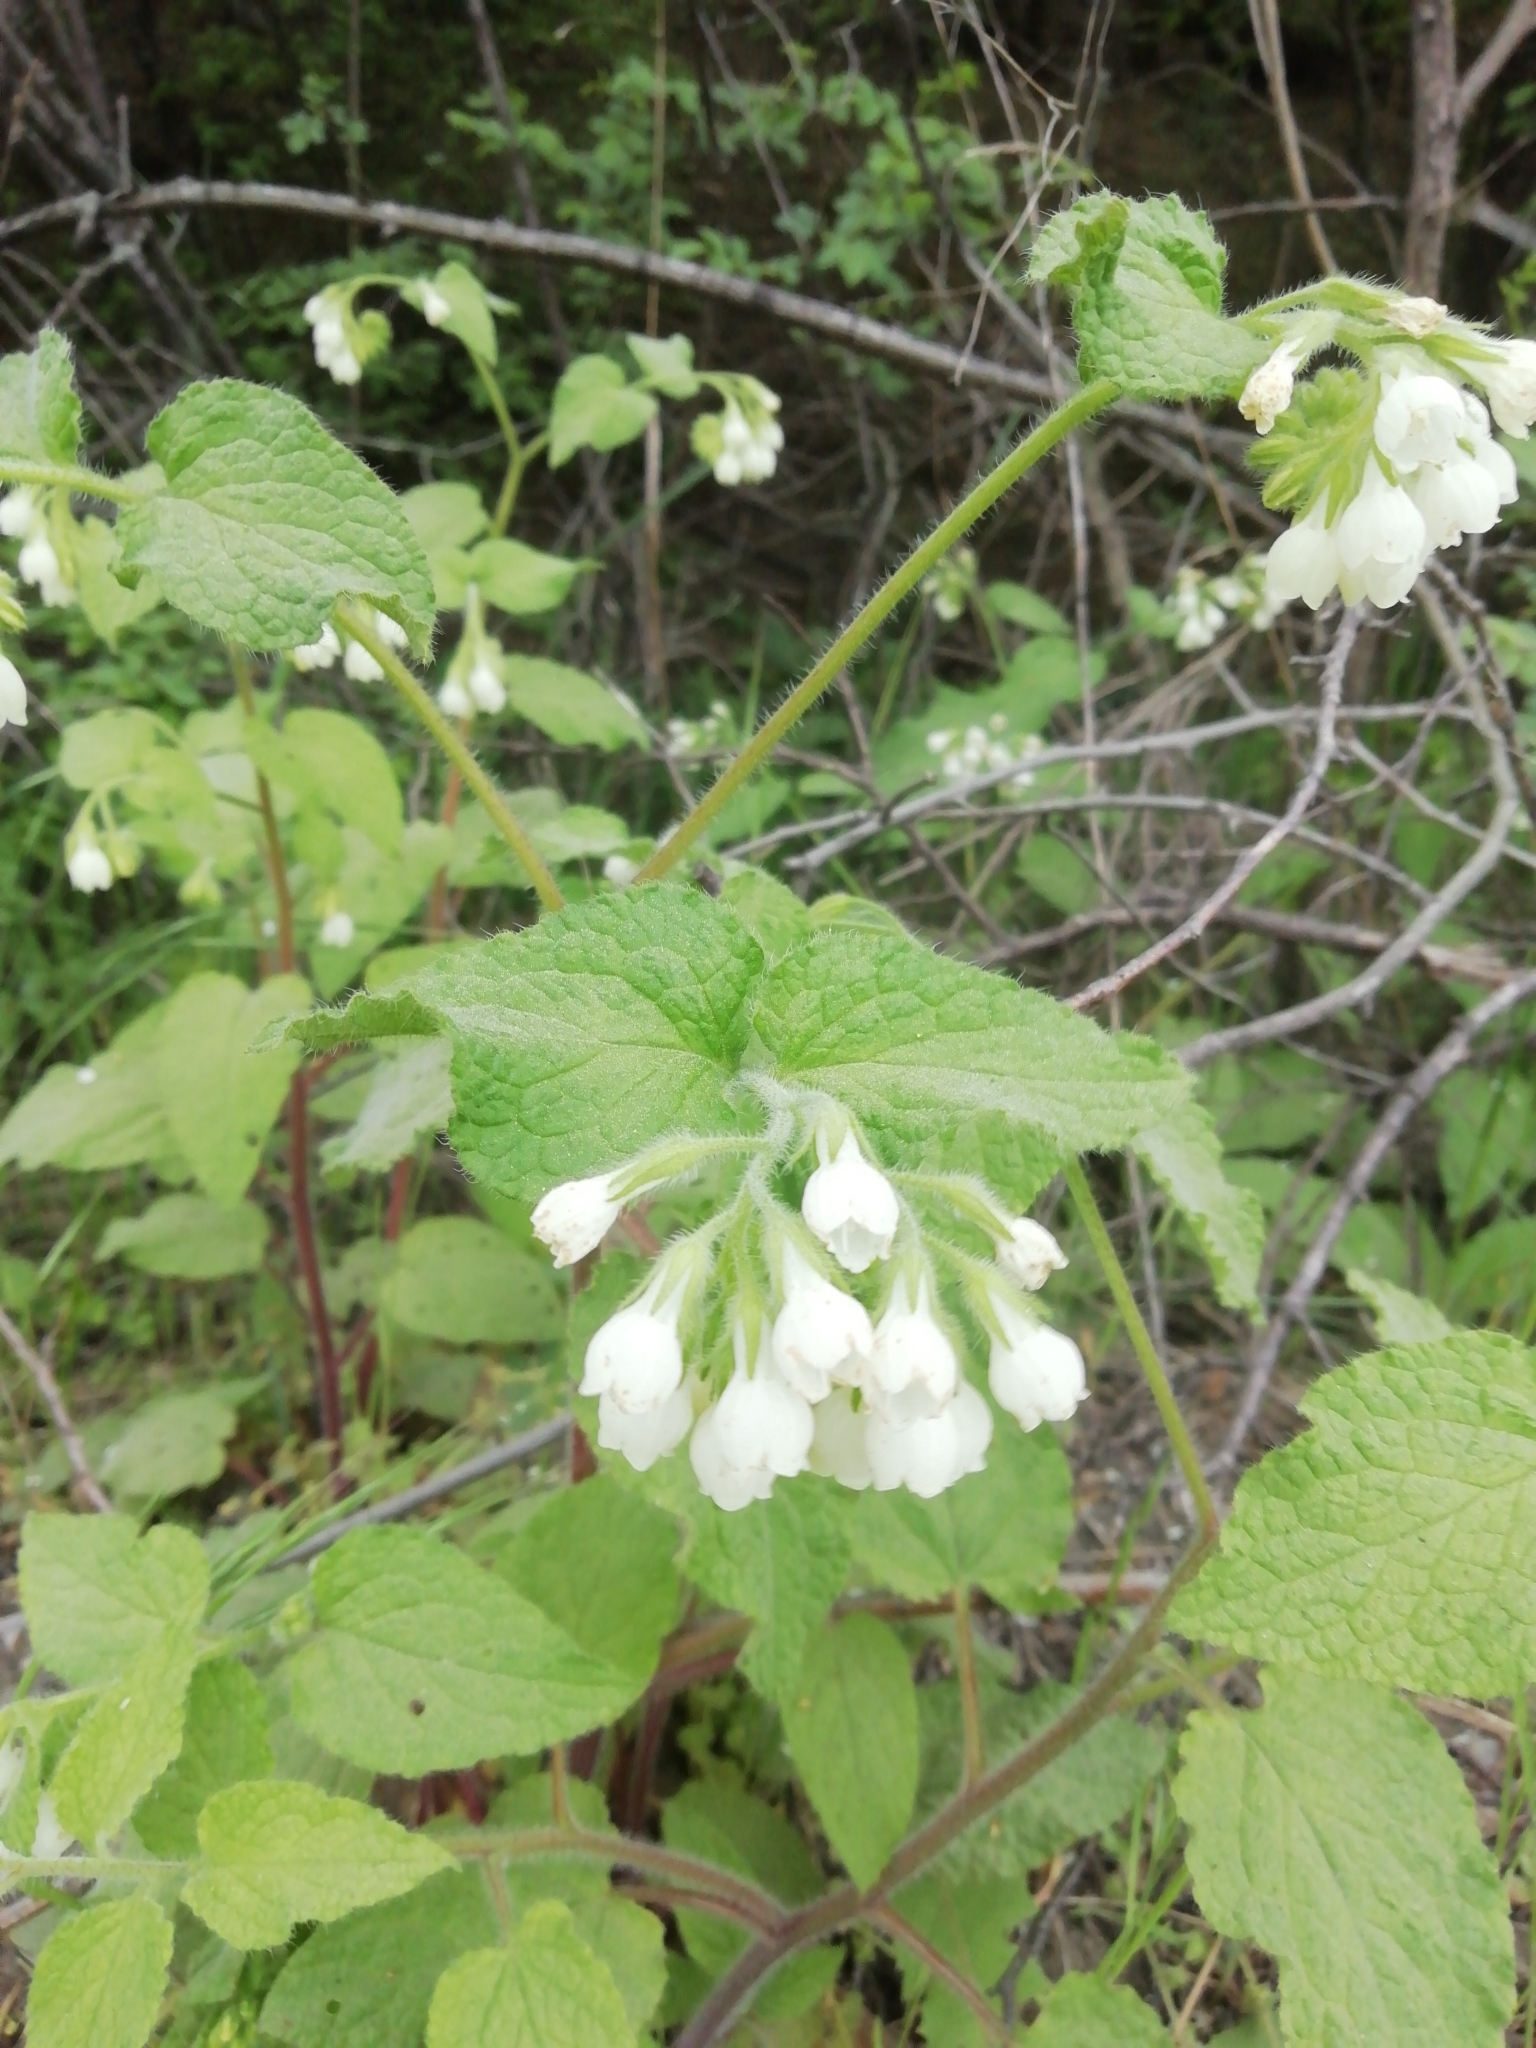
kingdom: Plantae
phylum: Tracheophyta
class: Magnoliopsida
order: Boraginales
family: Boraginaceae
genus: Symphytum
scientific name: Symphytum tauricum
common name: Crimean comfrey
